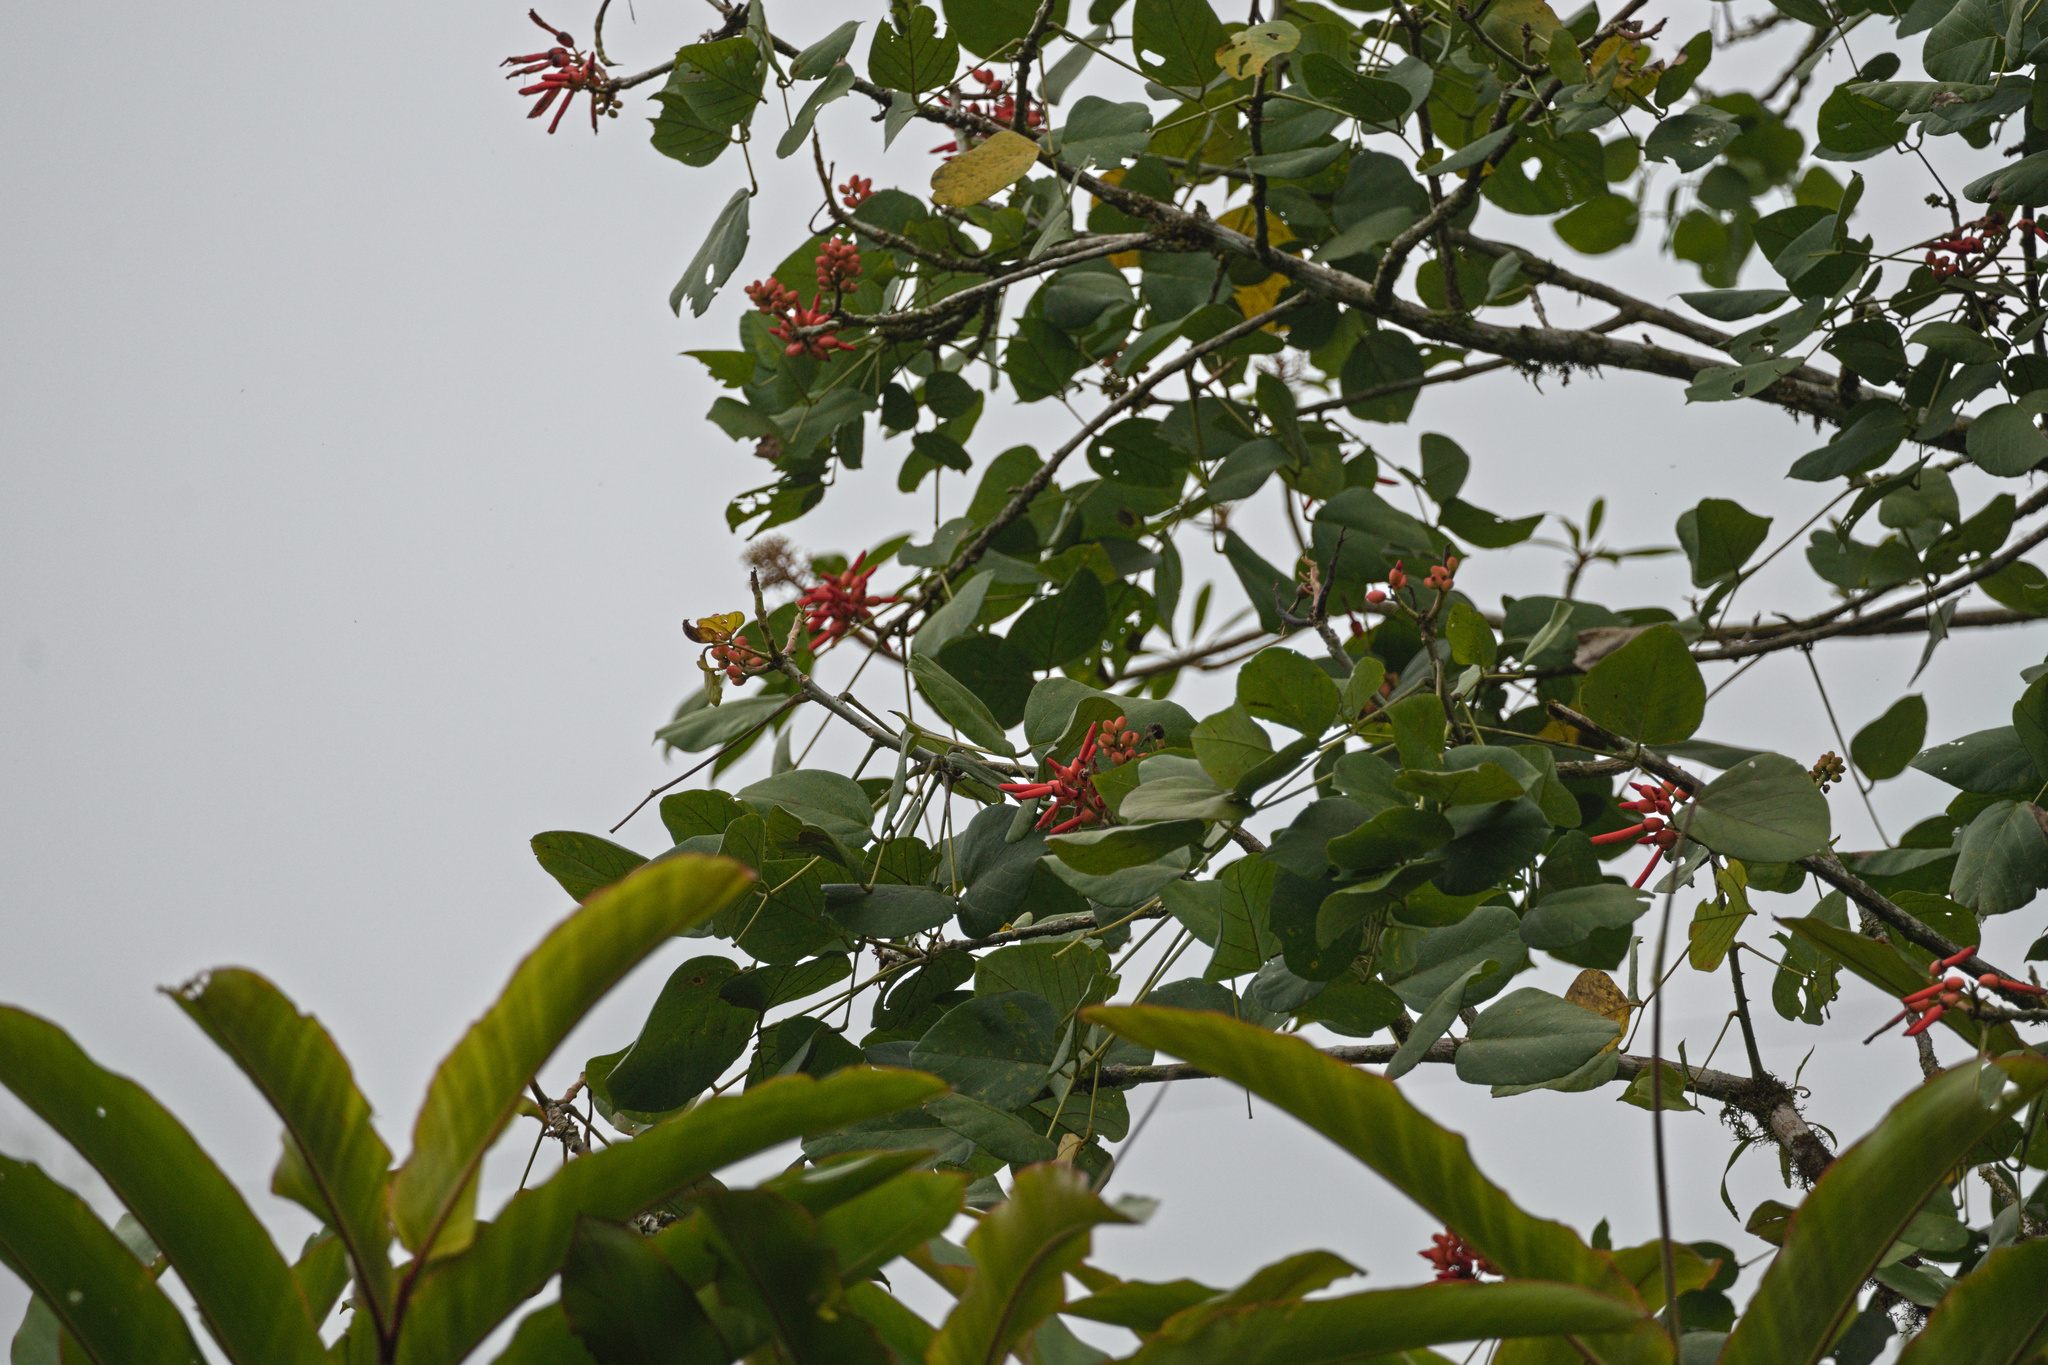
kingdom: Plantae
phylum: Tracheophyta
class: Magnoliopsida
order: Fabales
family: Fabaceae
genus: Erythrina
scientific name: Erythrina globocalyx
